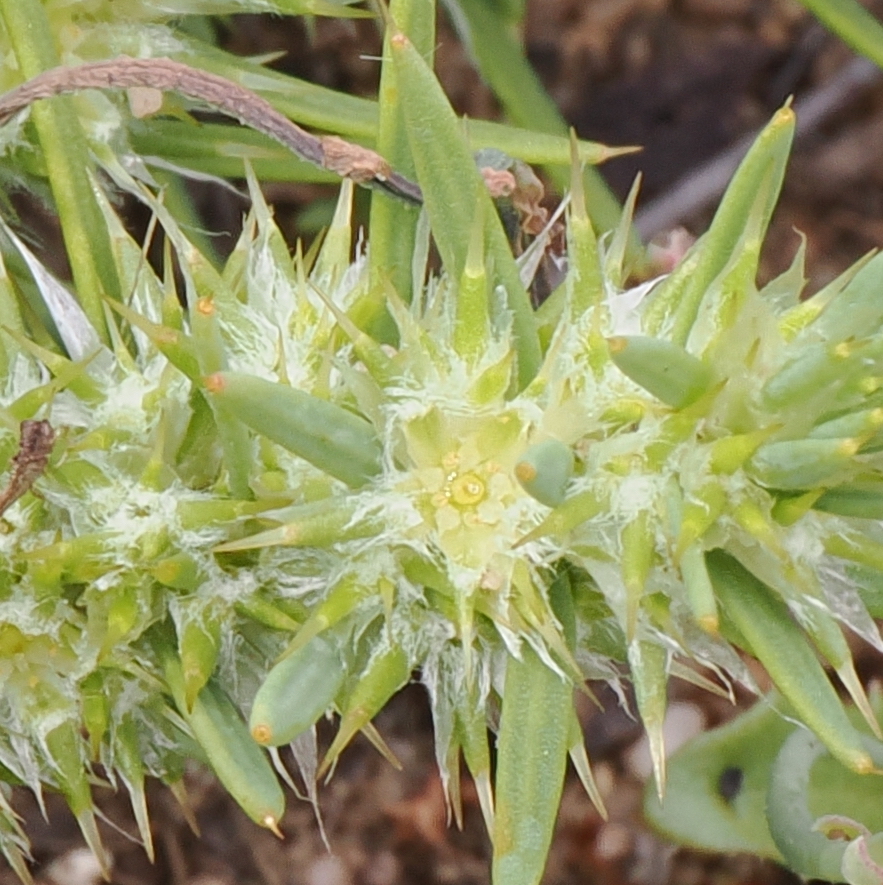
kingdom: Plantae
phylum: Tracheophyta
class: Magnoliopsida
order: Caryophyllales
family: Caryophyllaceae
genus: Cardionema
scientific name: Cardionema ramosissima
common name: Sandcarpet
